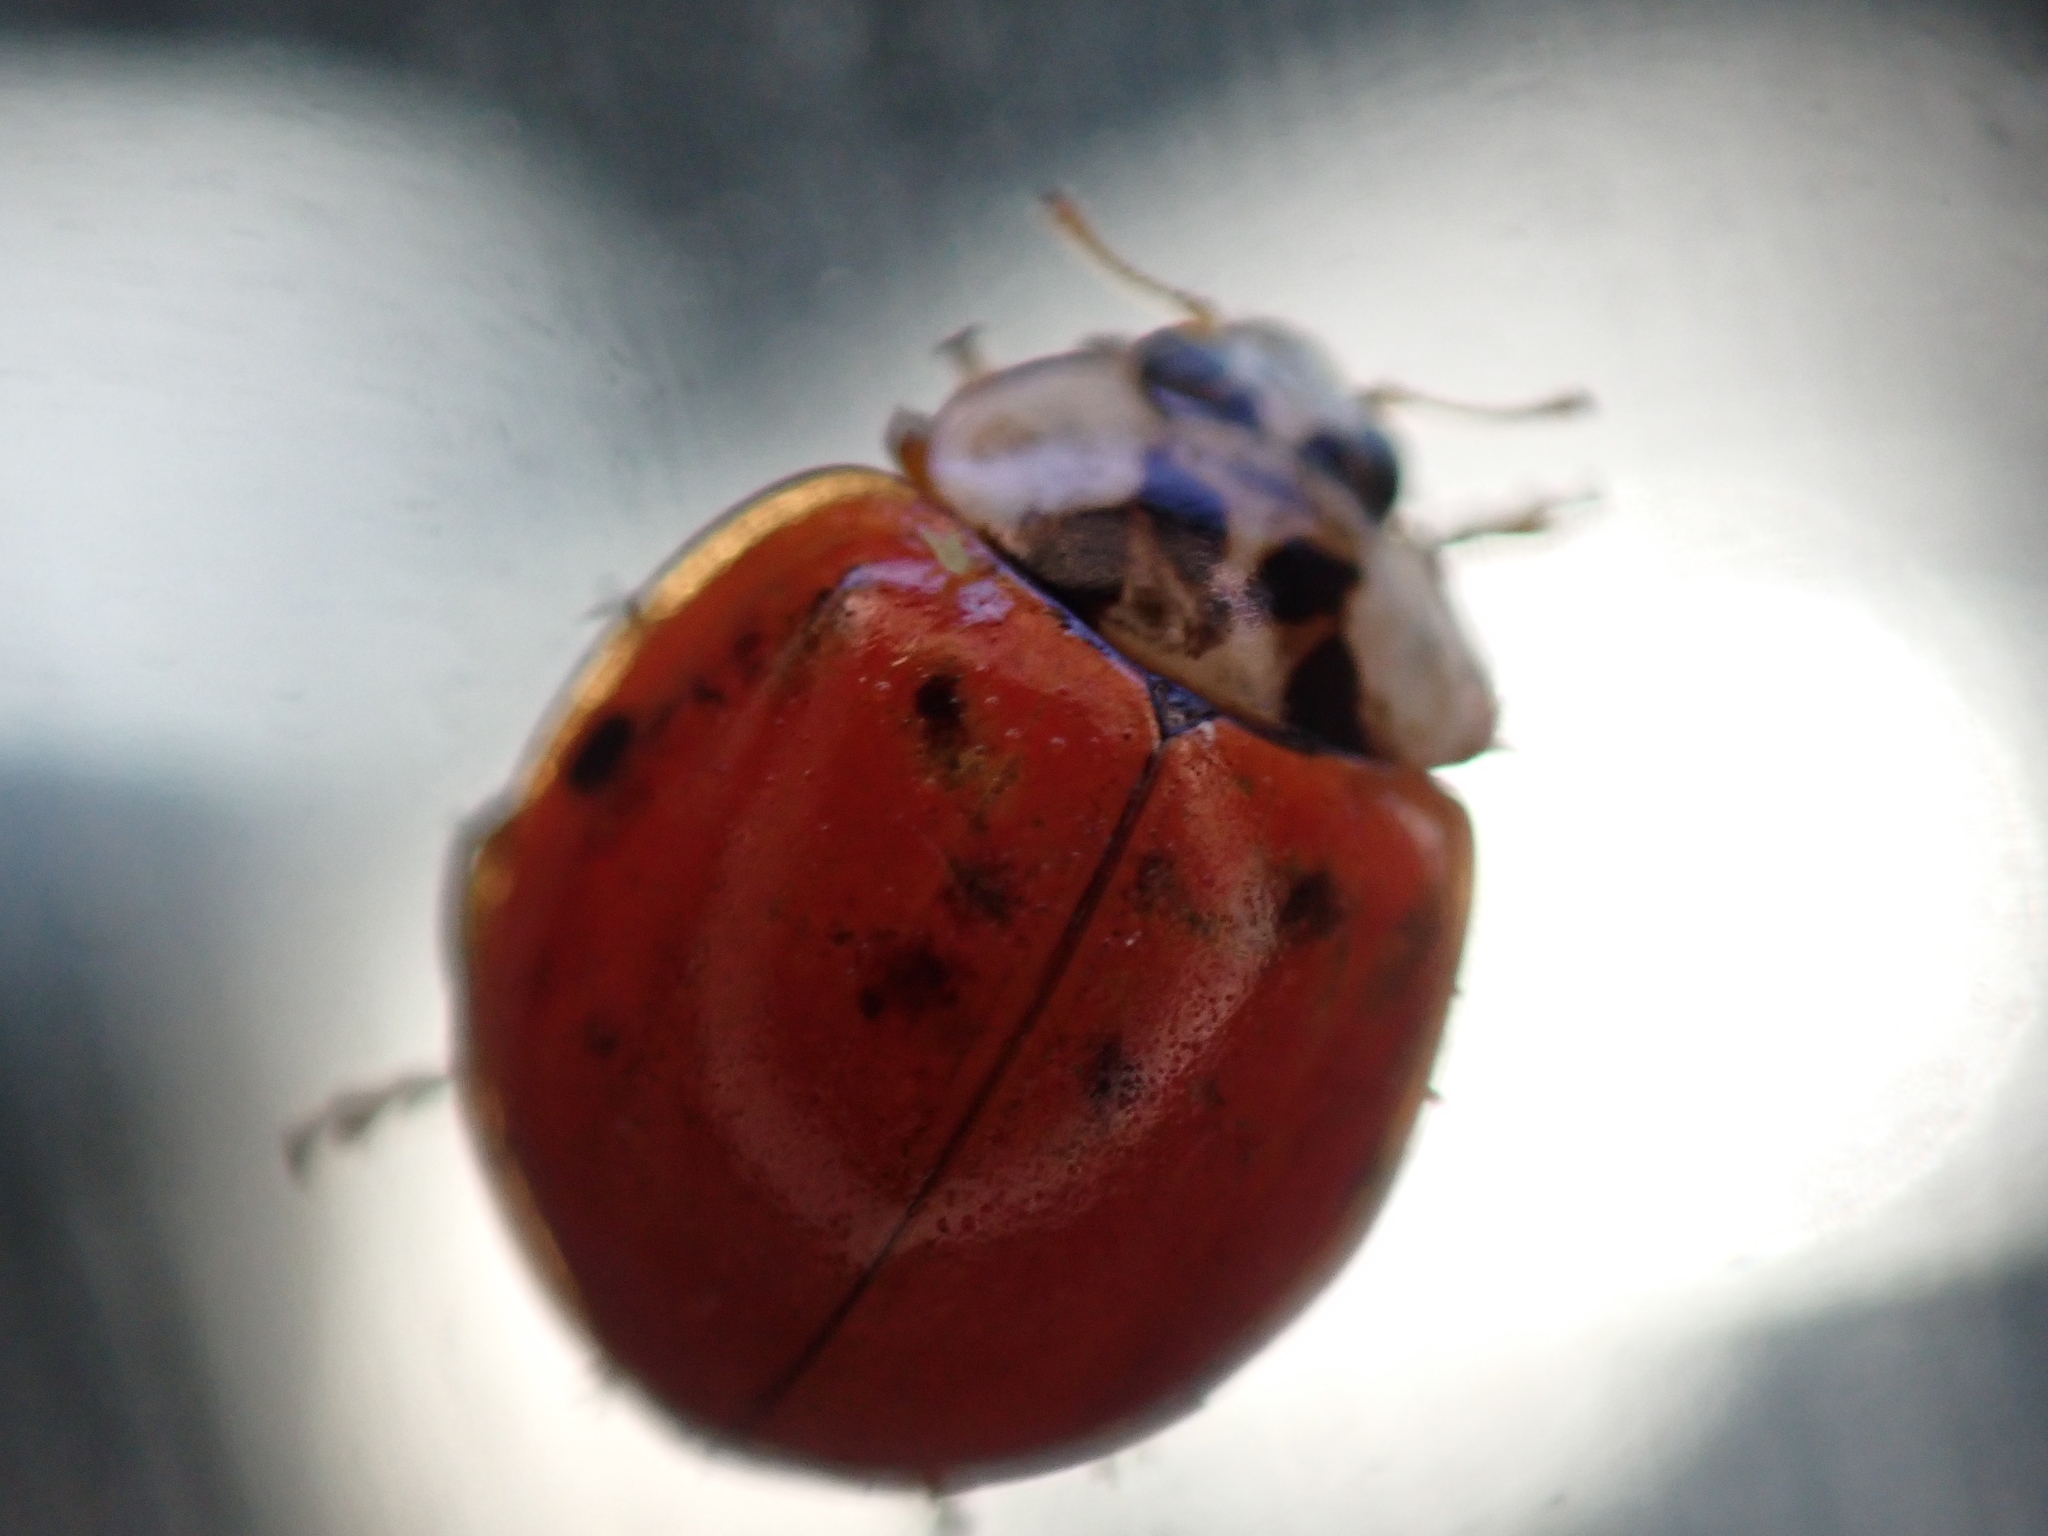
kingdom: Animalia
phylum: Arthropoda
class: Insecta
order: Coleoptera
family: Coccinellidae
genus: Harmonia
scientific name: Harmonia axyridis
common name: Harlequin ladybird
